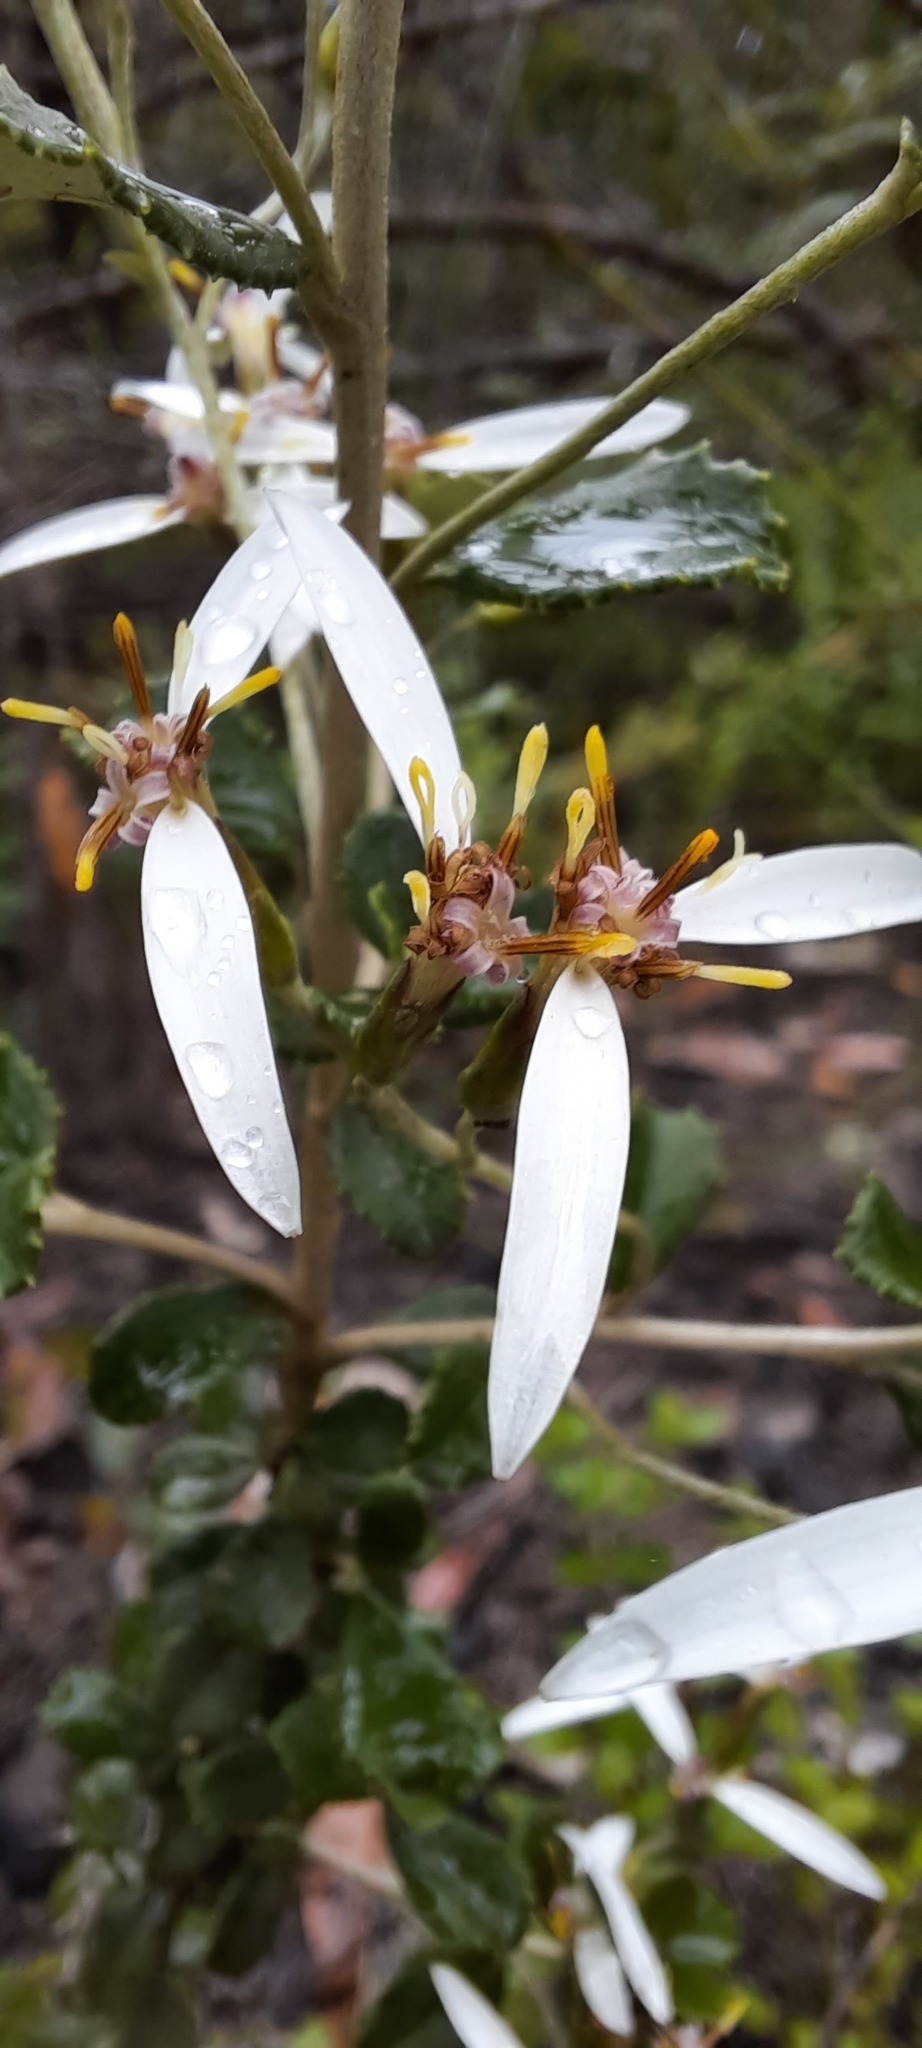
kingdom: Plantae
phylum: Tracheophyta
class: Magnoliopsida
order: Asterales
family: Asteraceae
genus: Olearia
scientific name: Olearia myrsinoides
